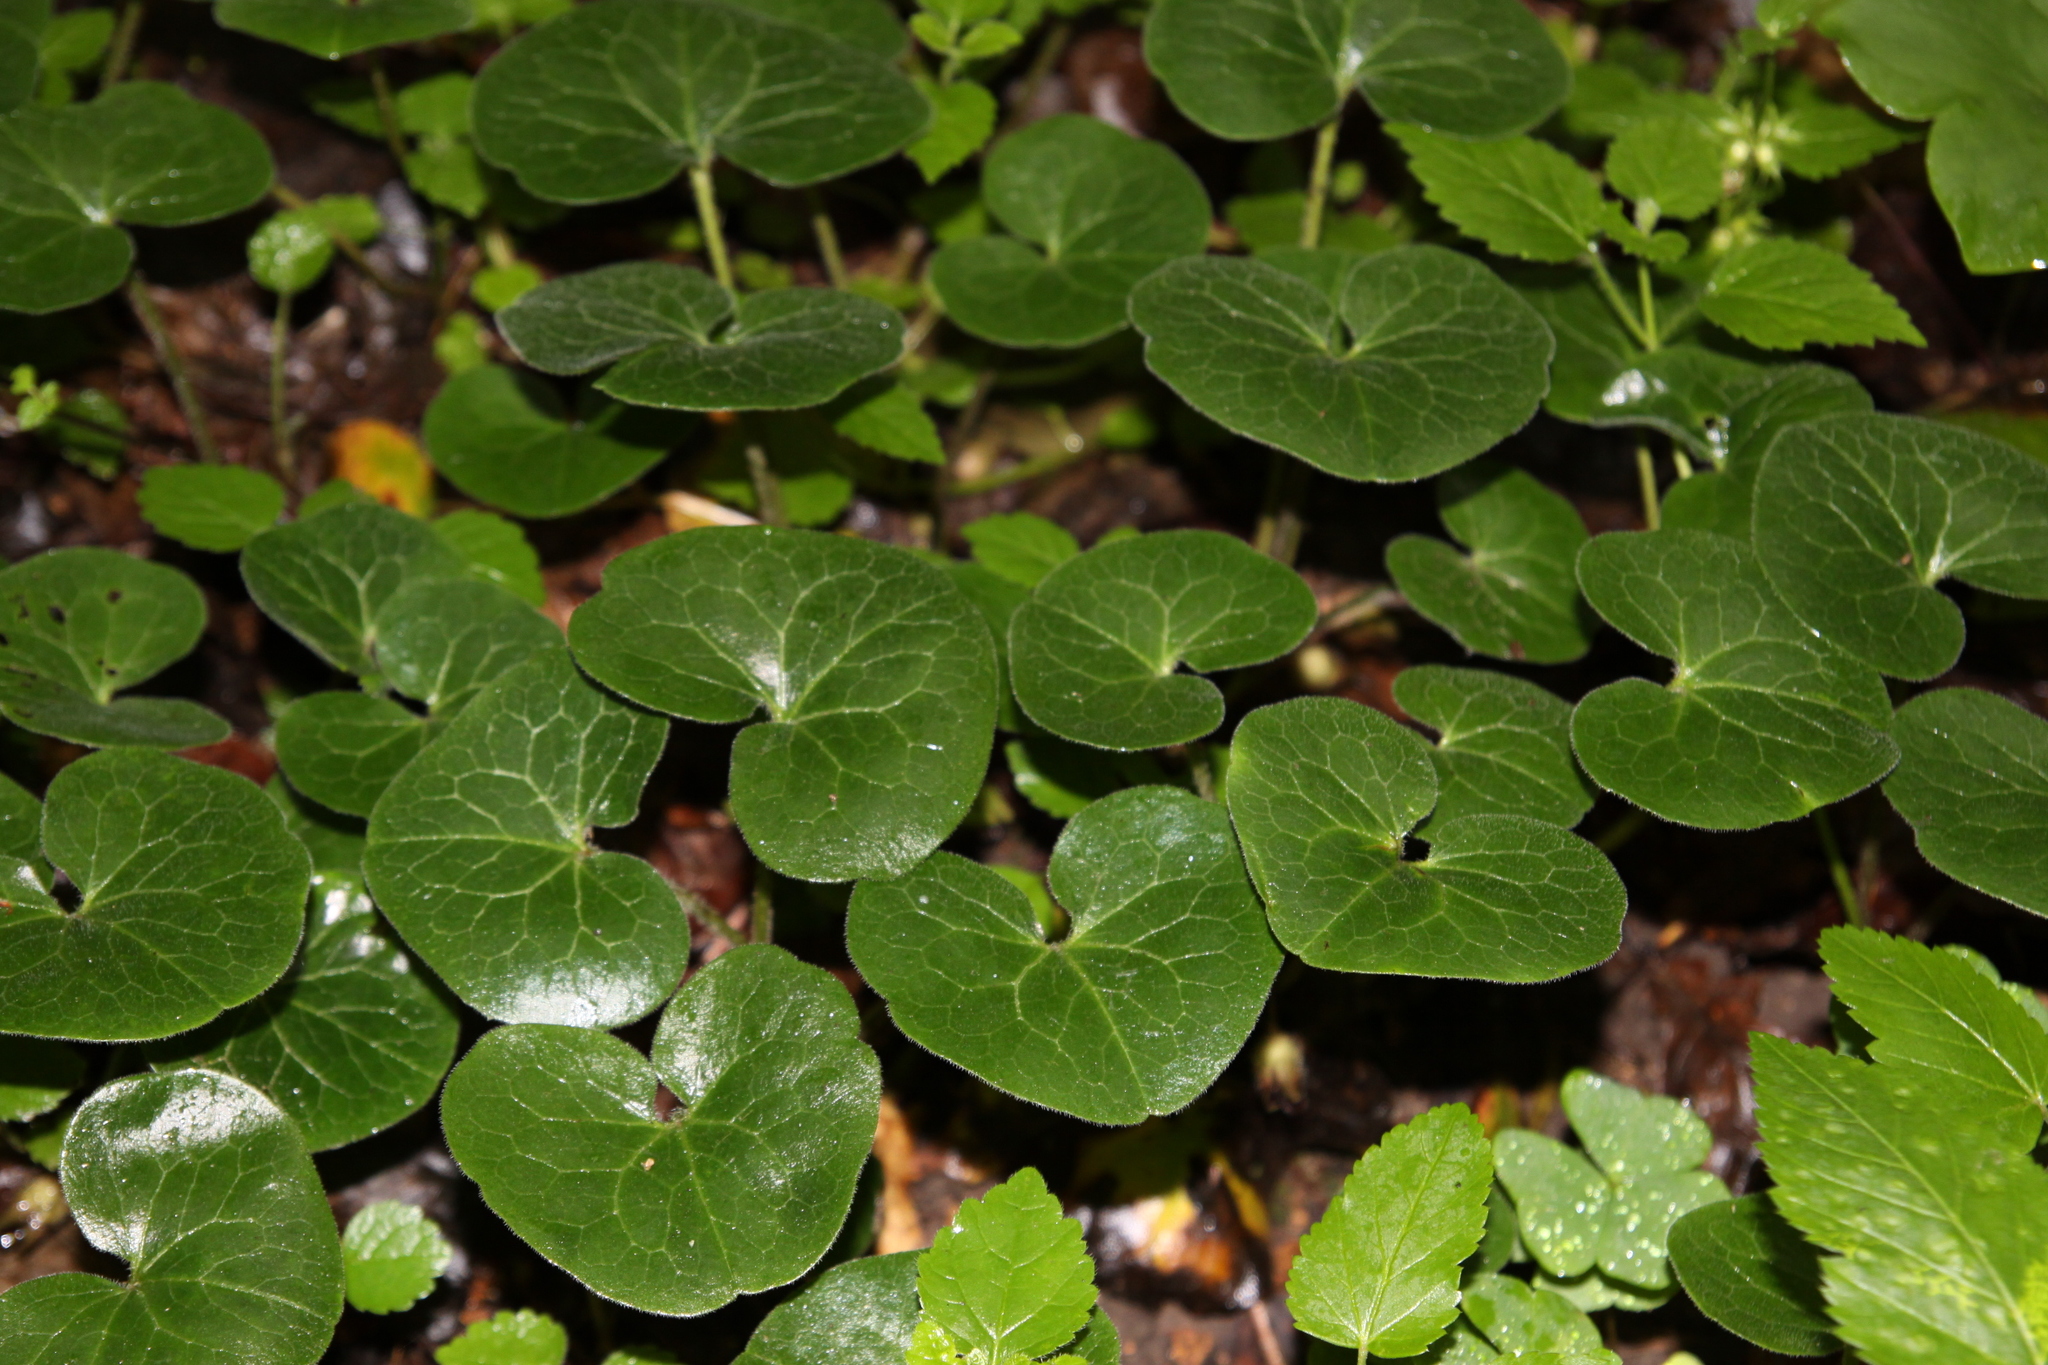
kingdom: Plantae
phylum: Tracheophyta
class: Magnoliopsida
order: Piperales
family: Aristolochiaceae
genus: Asarum
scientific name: Asarum europaeum
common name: Asarabacca
